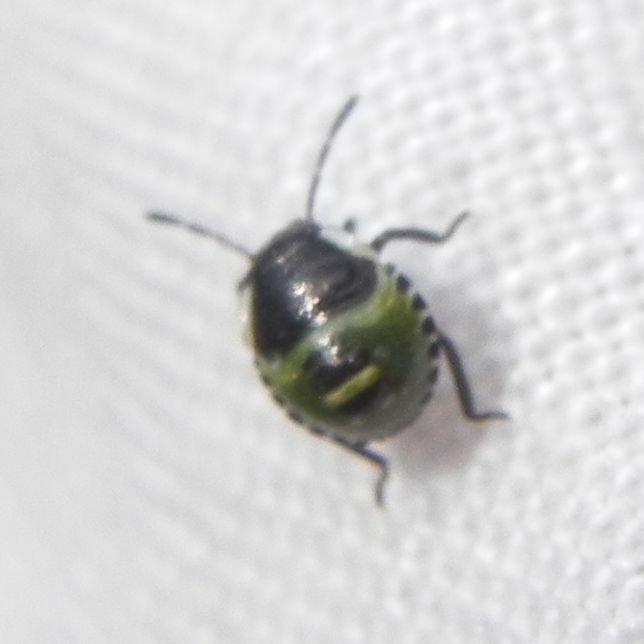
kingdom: Animalia
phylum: Arthropoda
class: Insecta
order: Hemiptera
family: Pentatomidae
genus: Palomena
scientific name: Palomena prasina
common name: Green shieldbug
